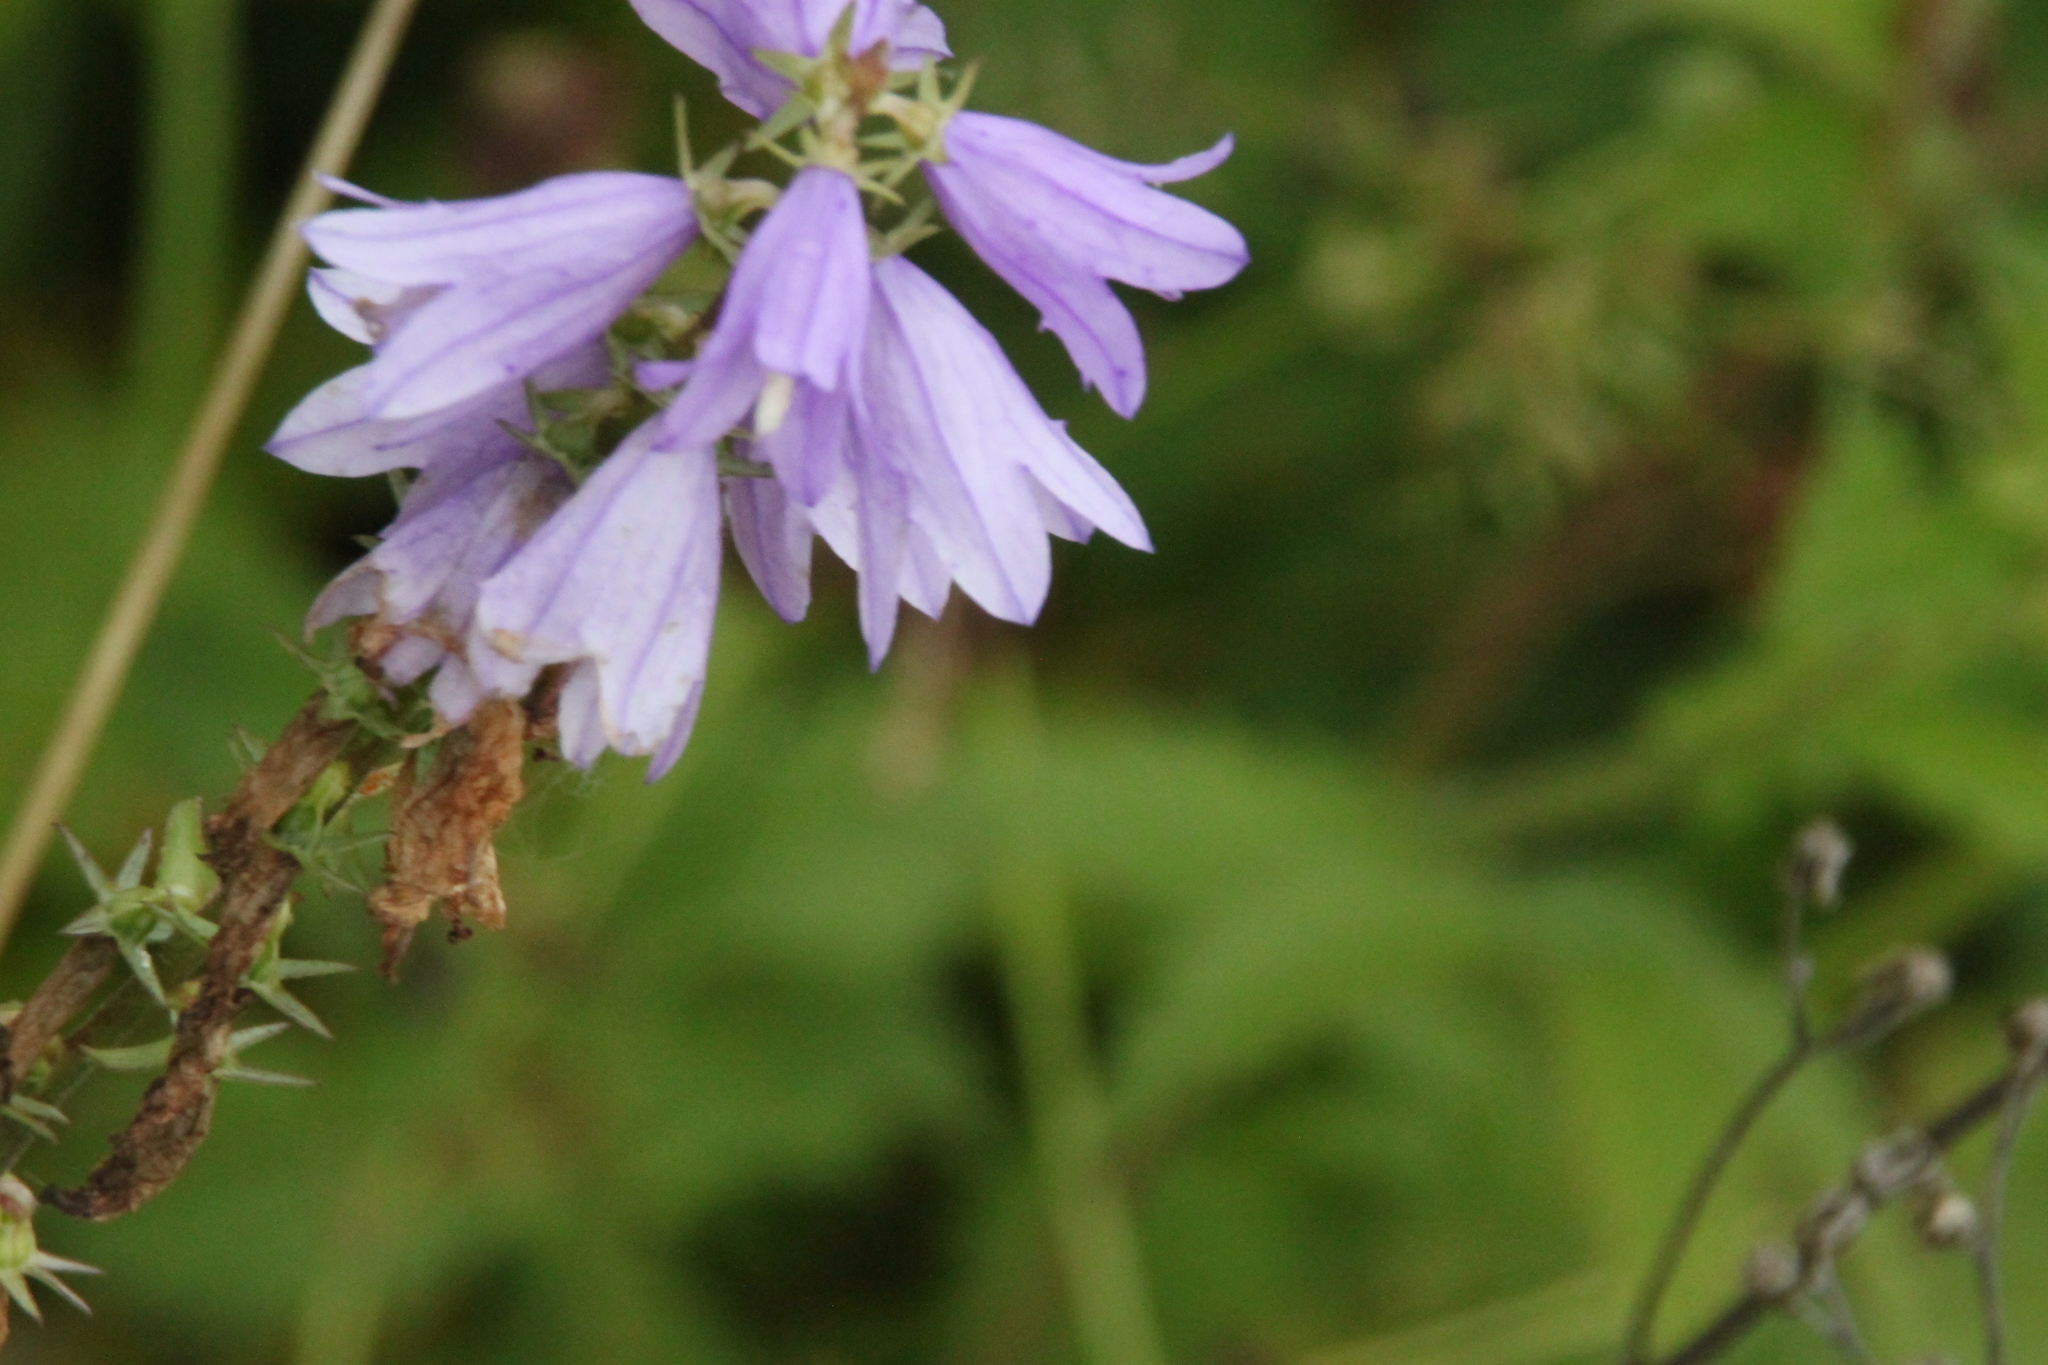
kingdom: Plantae
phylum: Tracheophyta
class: Magnoliopsida
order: Asterales
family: Campanulaceae
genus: Campanula
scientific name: Campanula bononiensis
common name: Pale bellflower
